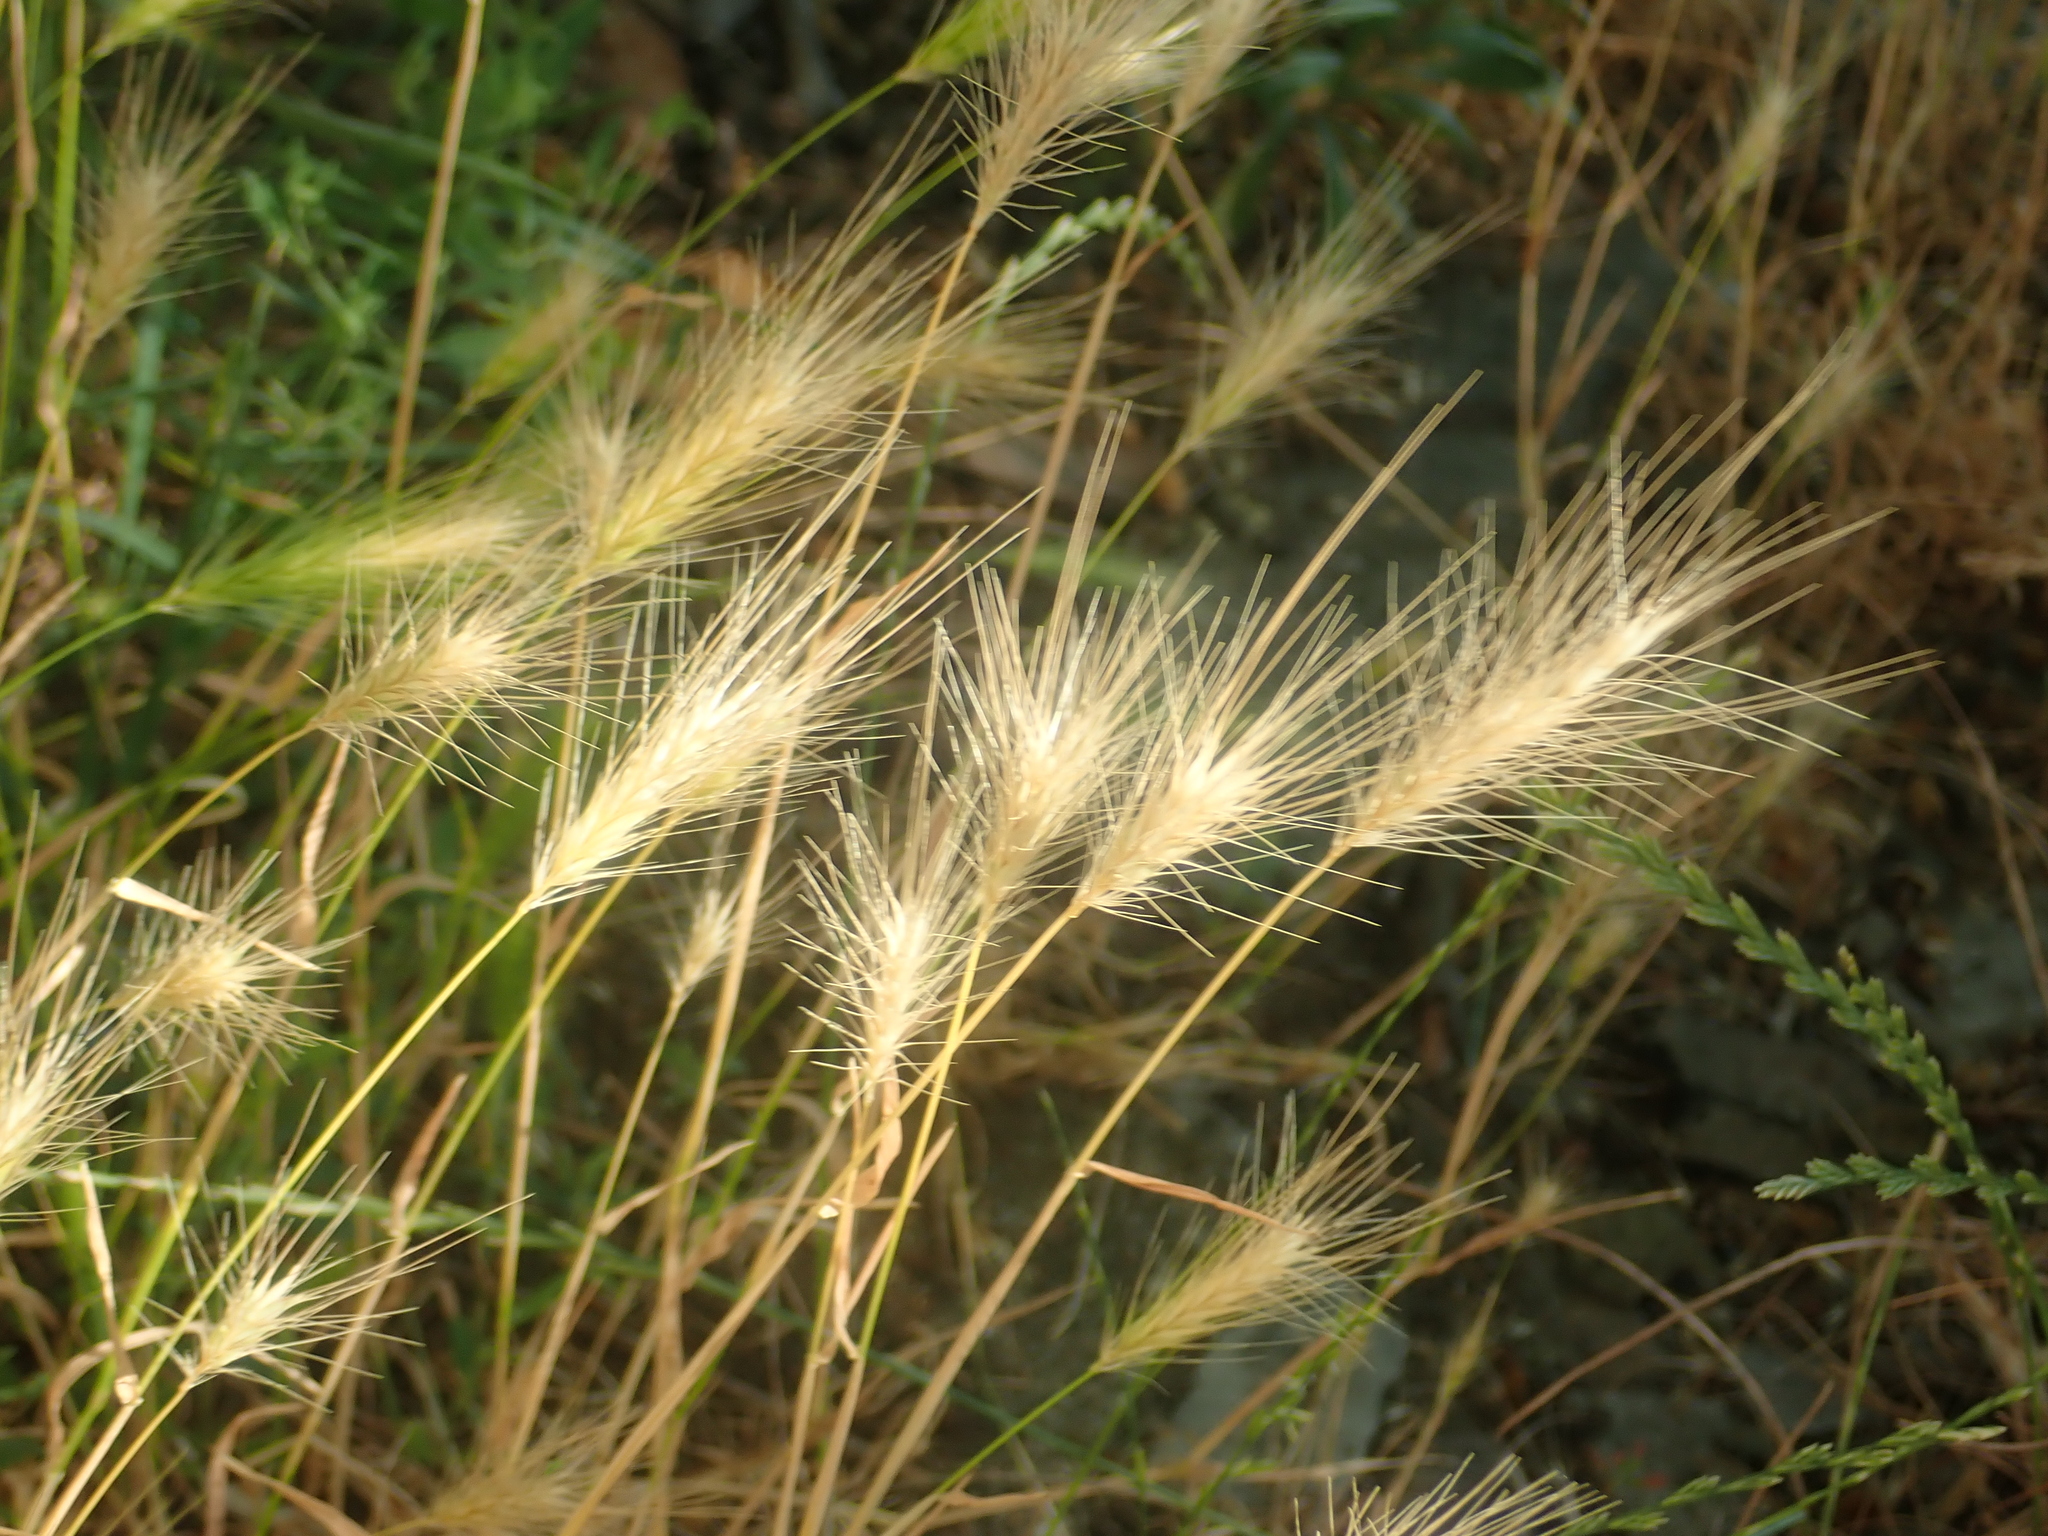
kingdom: Plantae
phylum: Tracheophyta
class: Liliopsida
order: Poales
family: Poaceae
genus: Hordeum
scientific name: Hordeum murinum
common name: Wall barley
